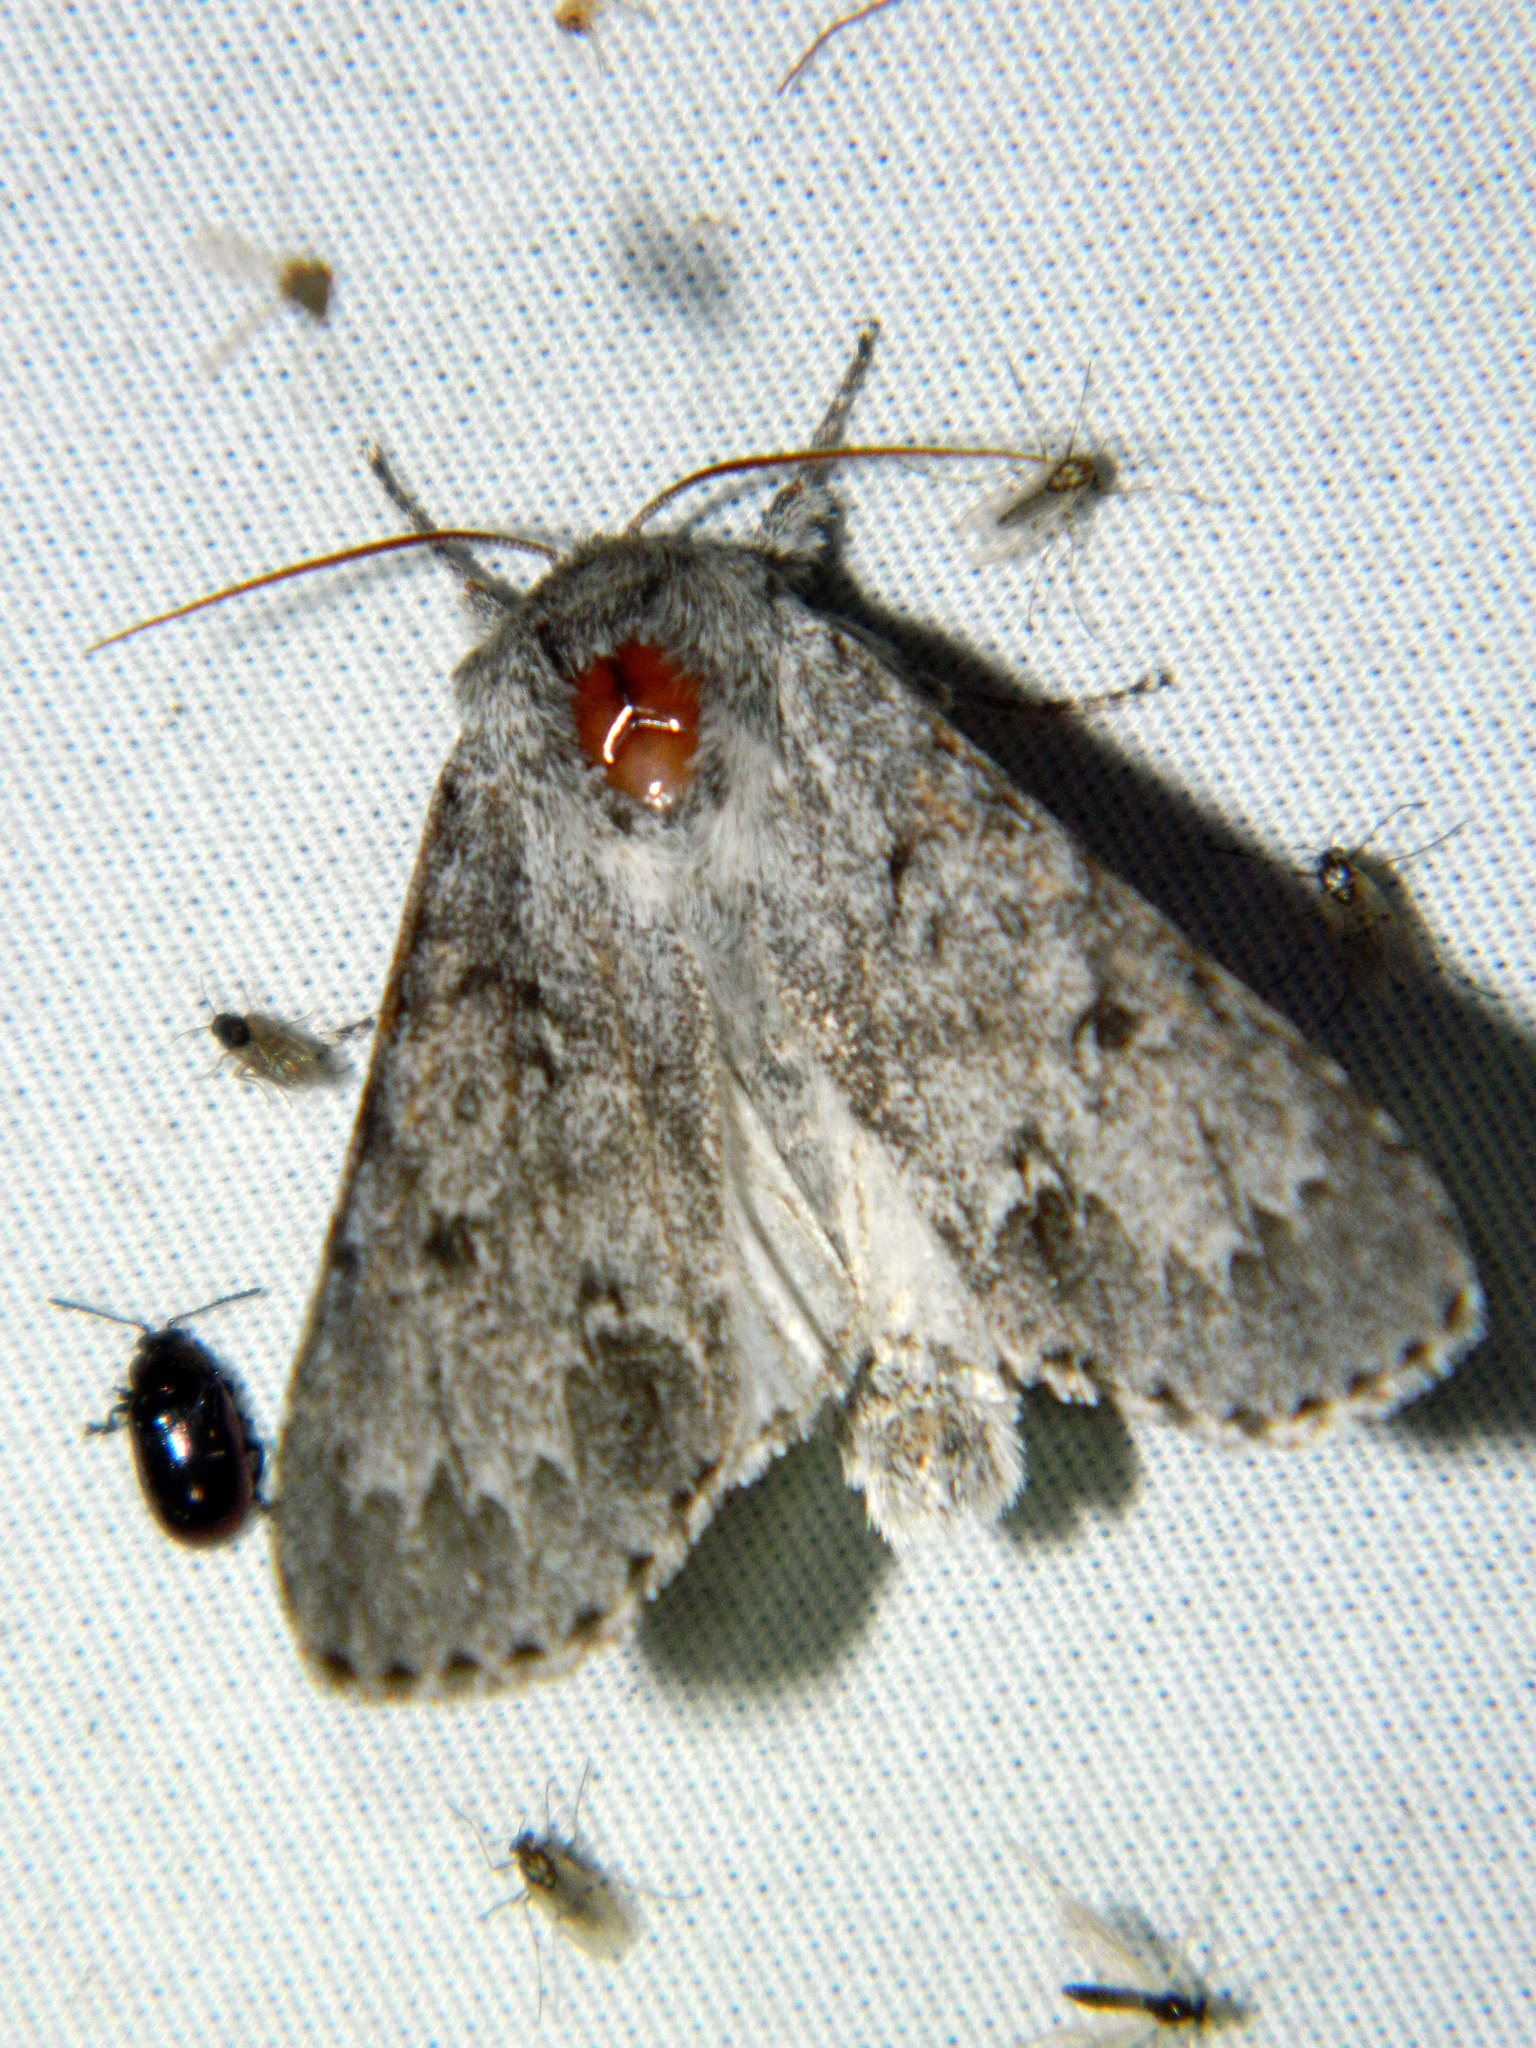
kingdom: Animalia
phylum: Arthropoda
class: Insecta
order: Lepidoptera
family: Noctuidae
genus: Acronicta
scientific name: Acronicta insita
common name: Large gray dagger
